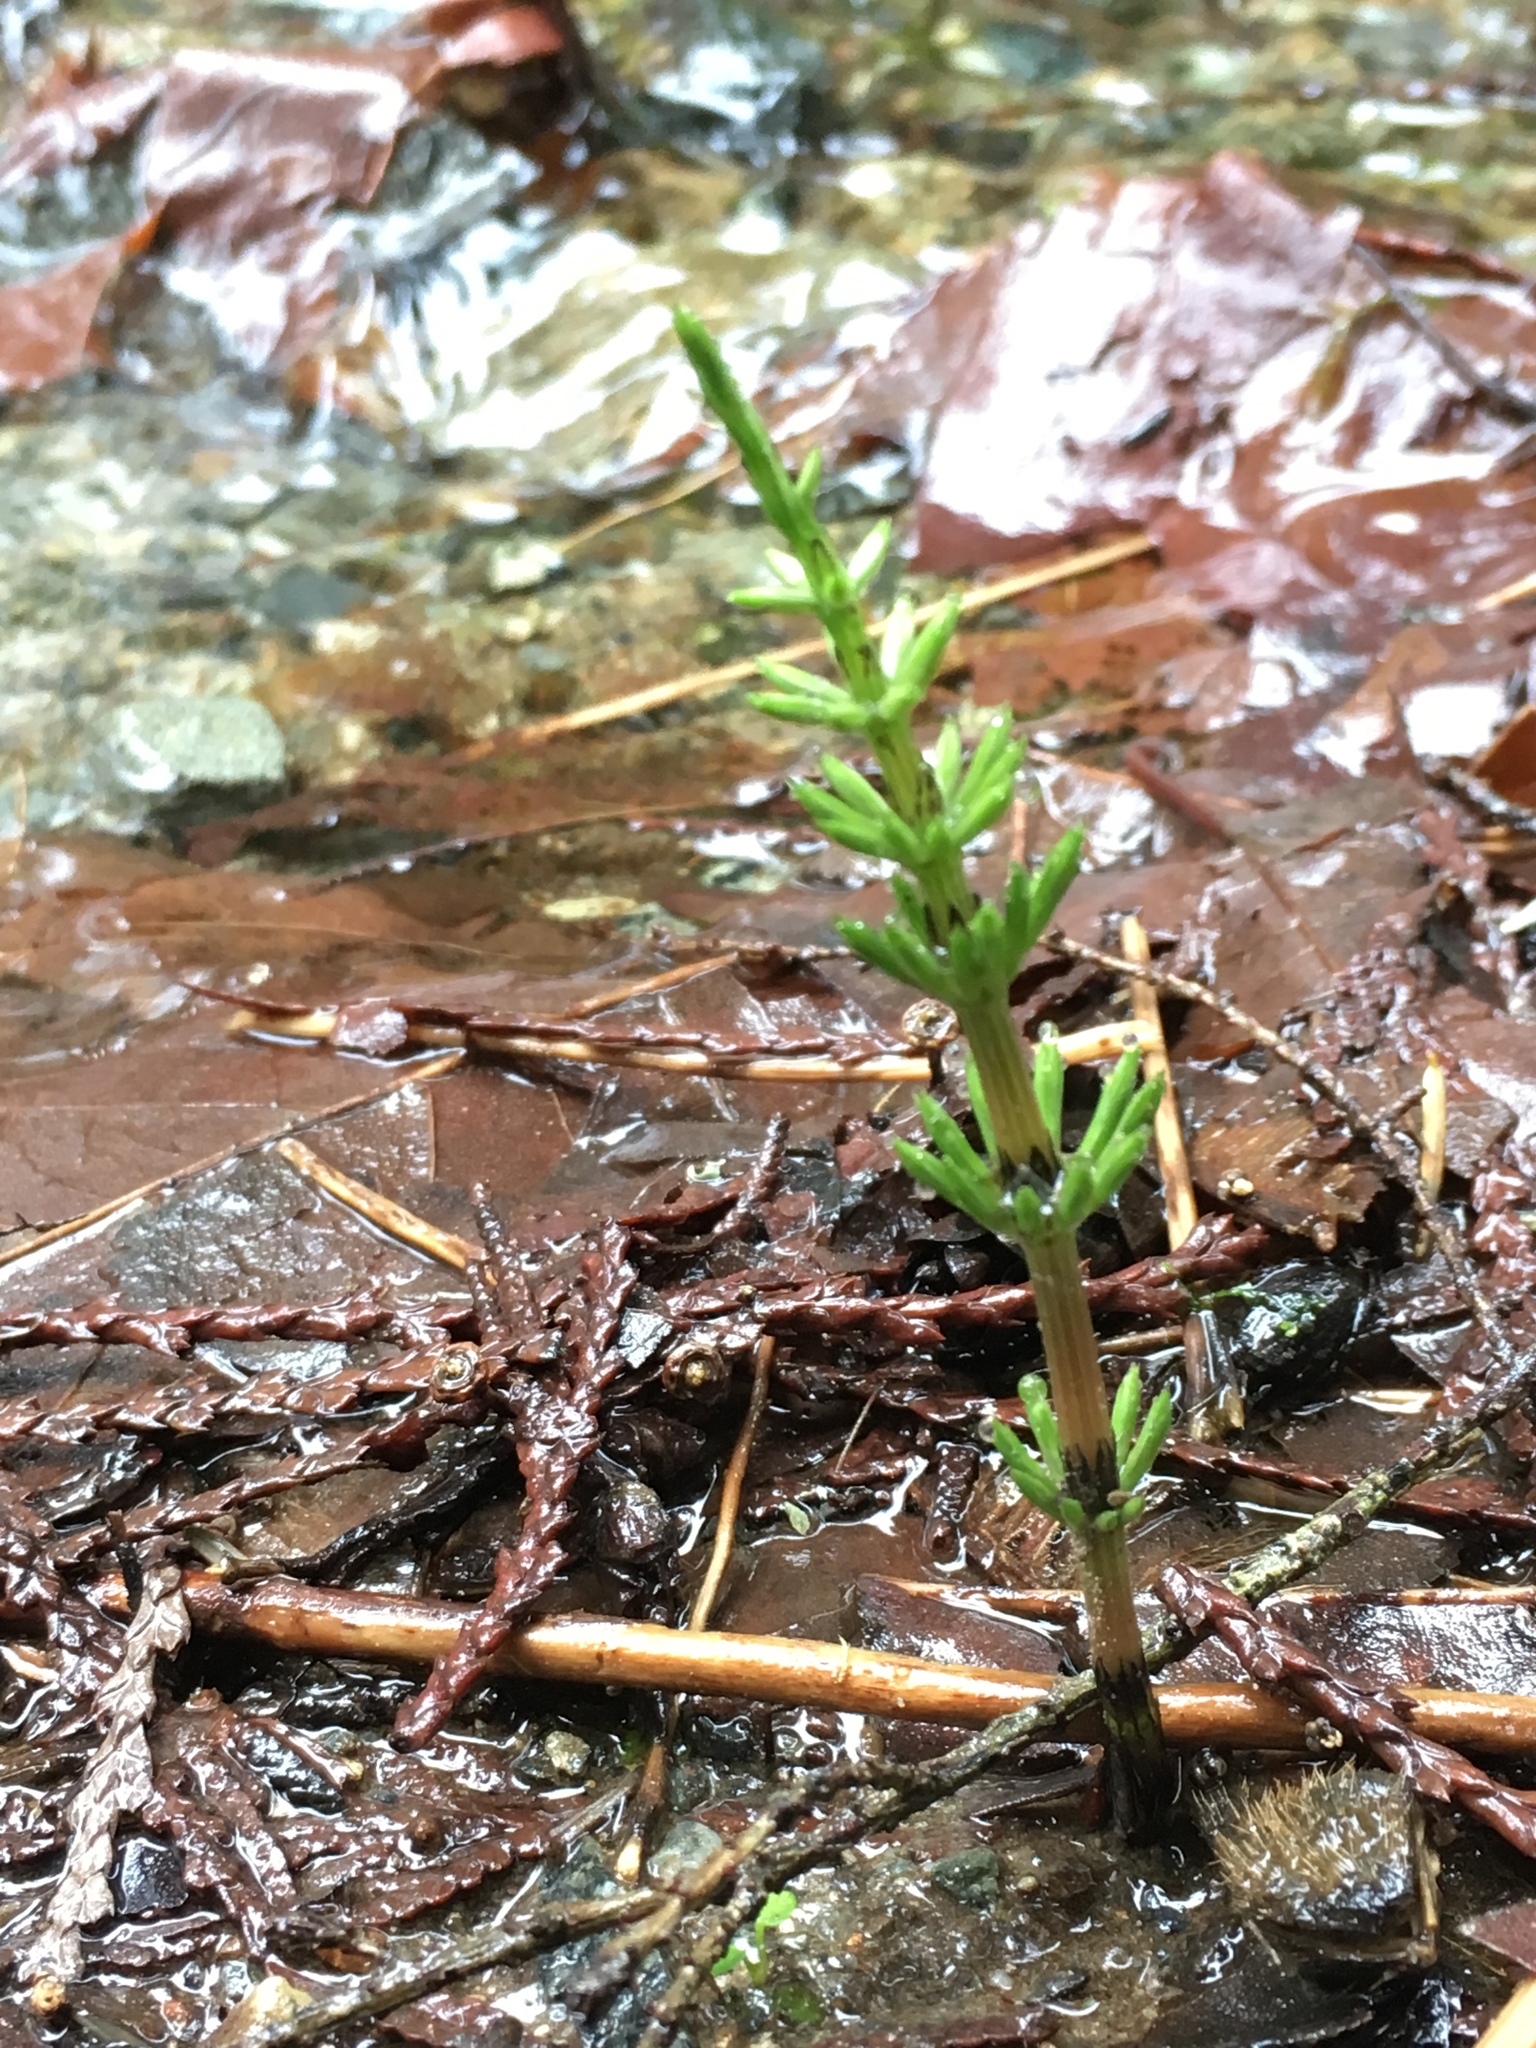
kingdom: Plantae
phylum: Tracheophyta
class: Polypodiopsida
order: Equisetales
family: Equisetaceae
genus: Equisetum
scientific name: Equisetum arvense
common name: Field horsetail
